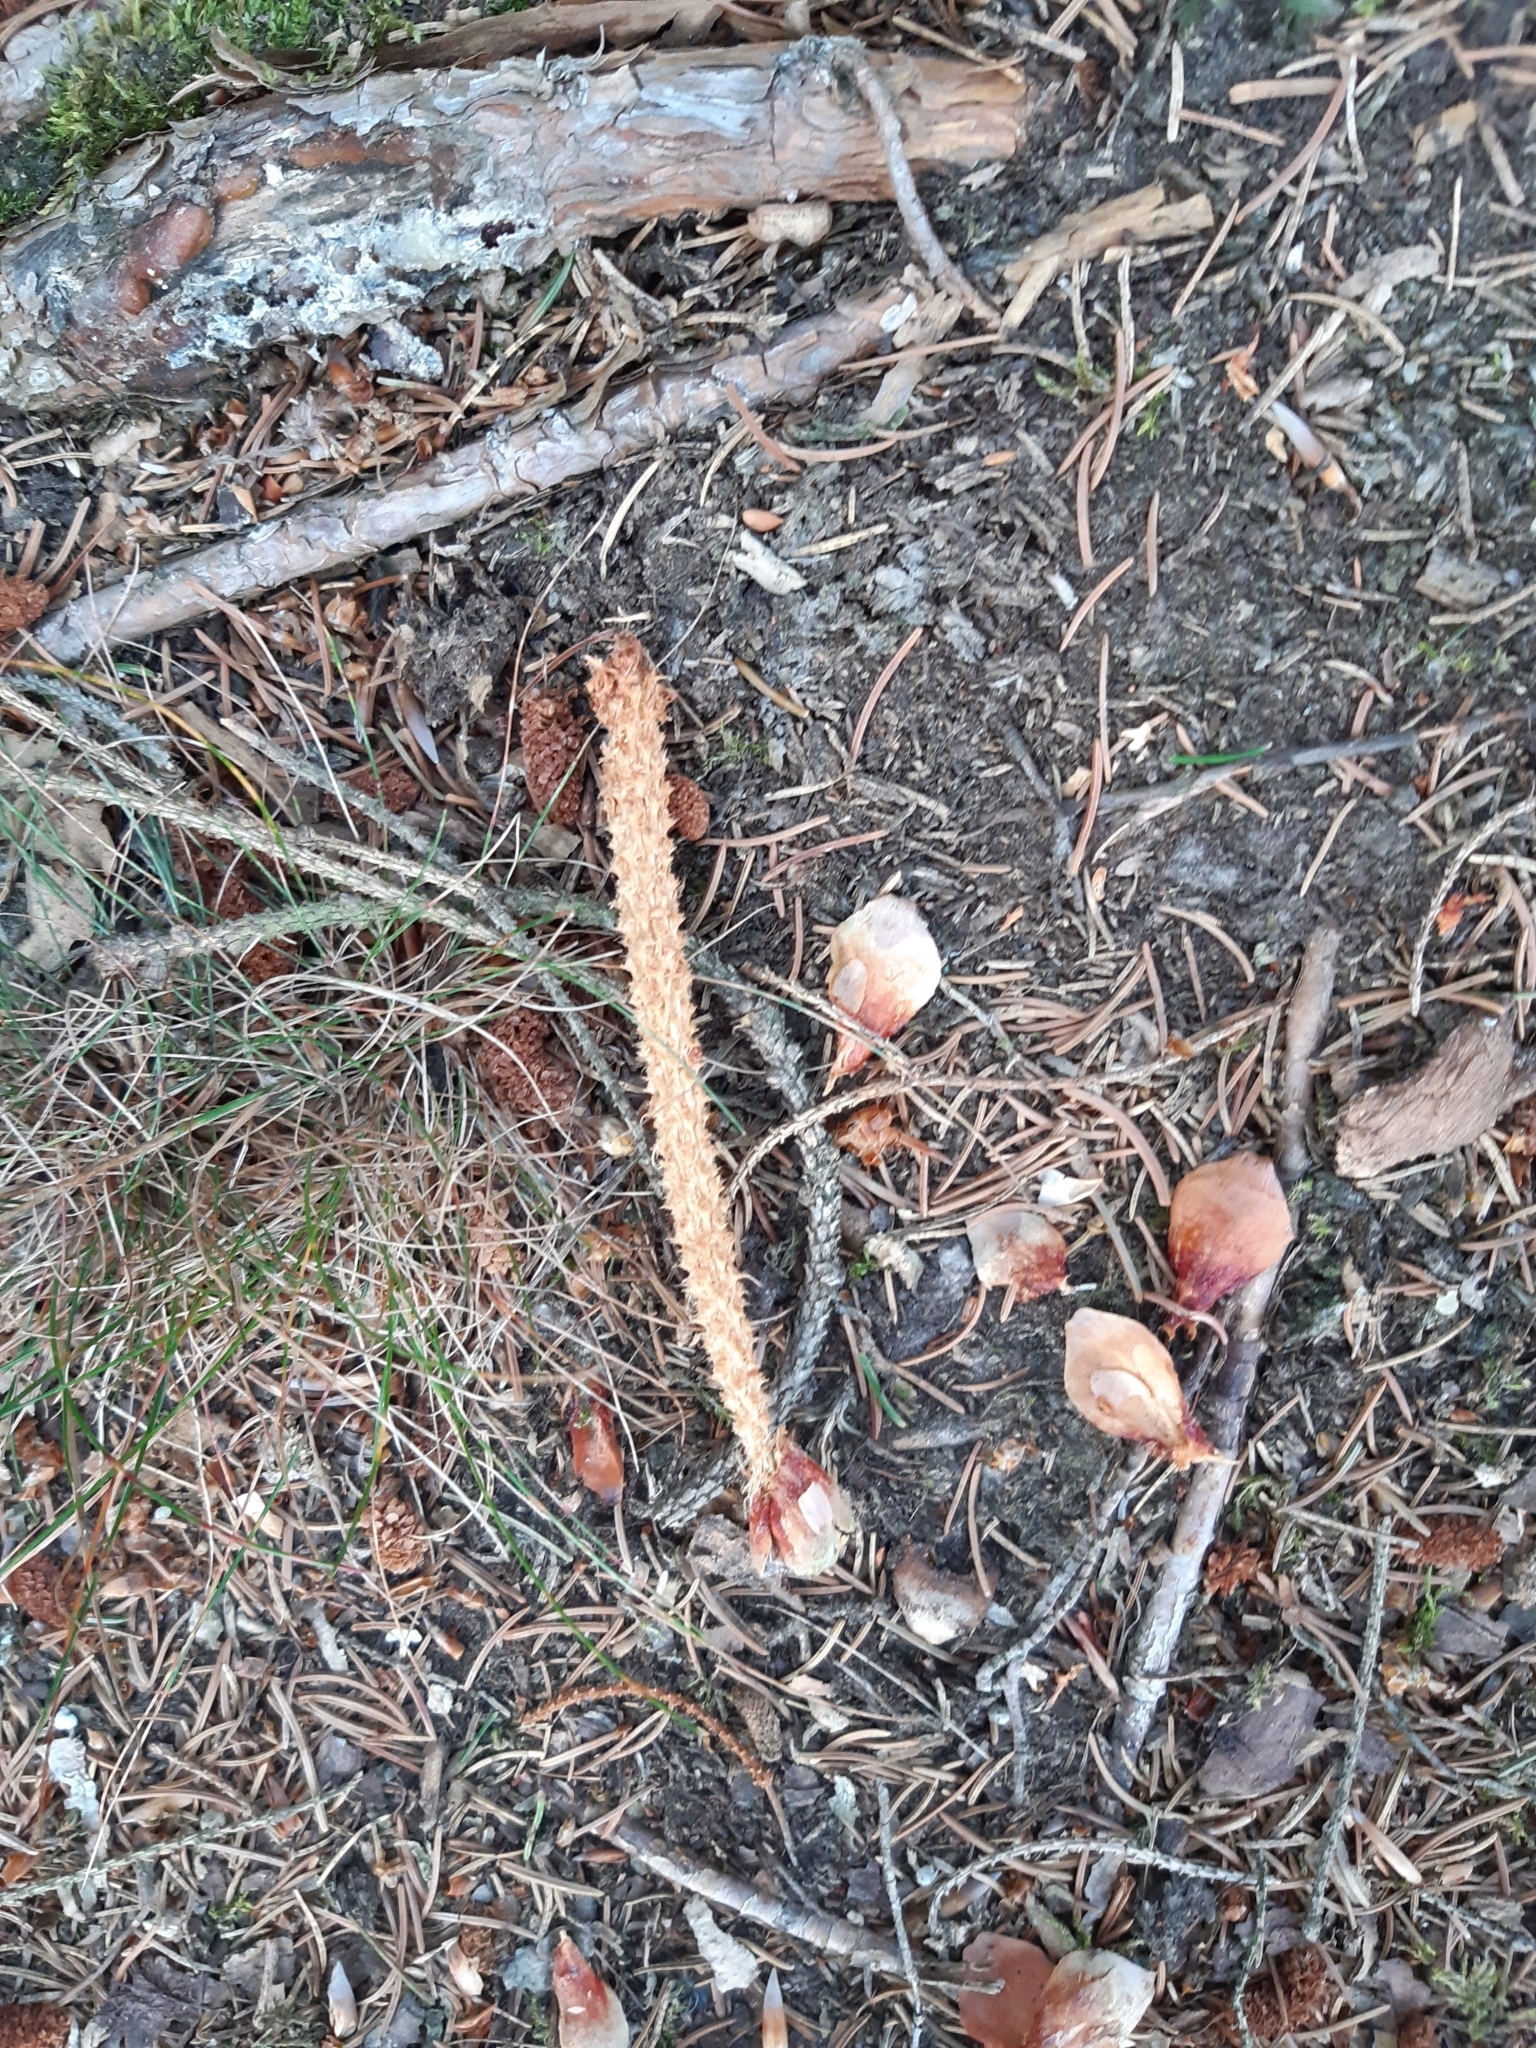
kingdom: Animalia
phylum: Chordata
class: Mammalia
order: Rodentia
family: Sciuridae
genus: Sciurus
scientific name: Sciurus vulgaris
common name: Eurasian red squirrel
